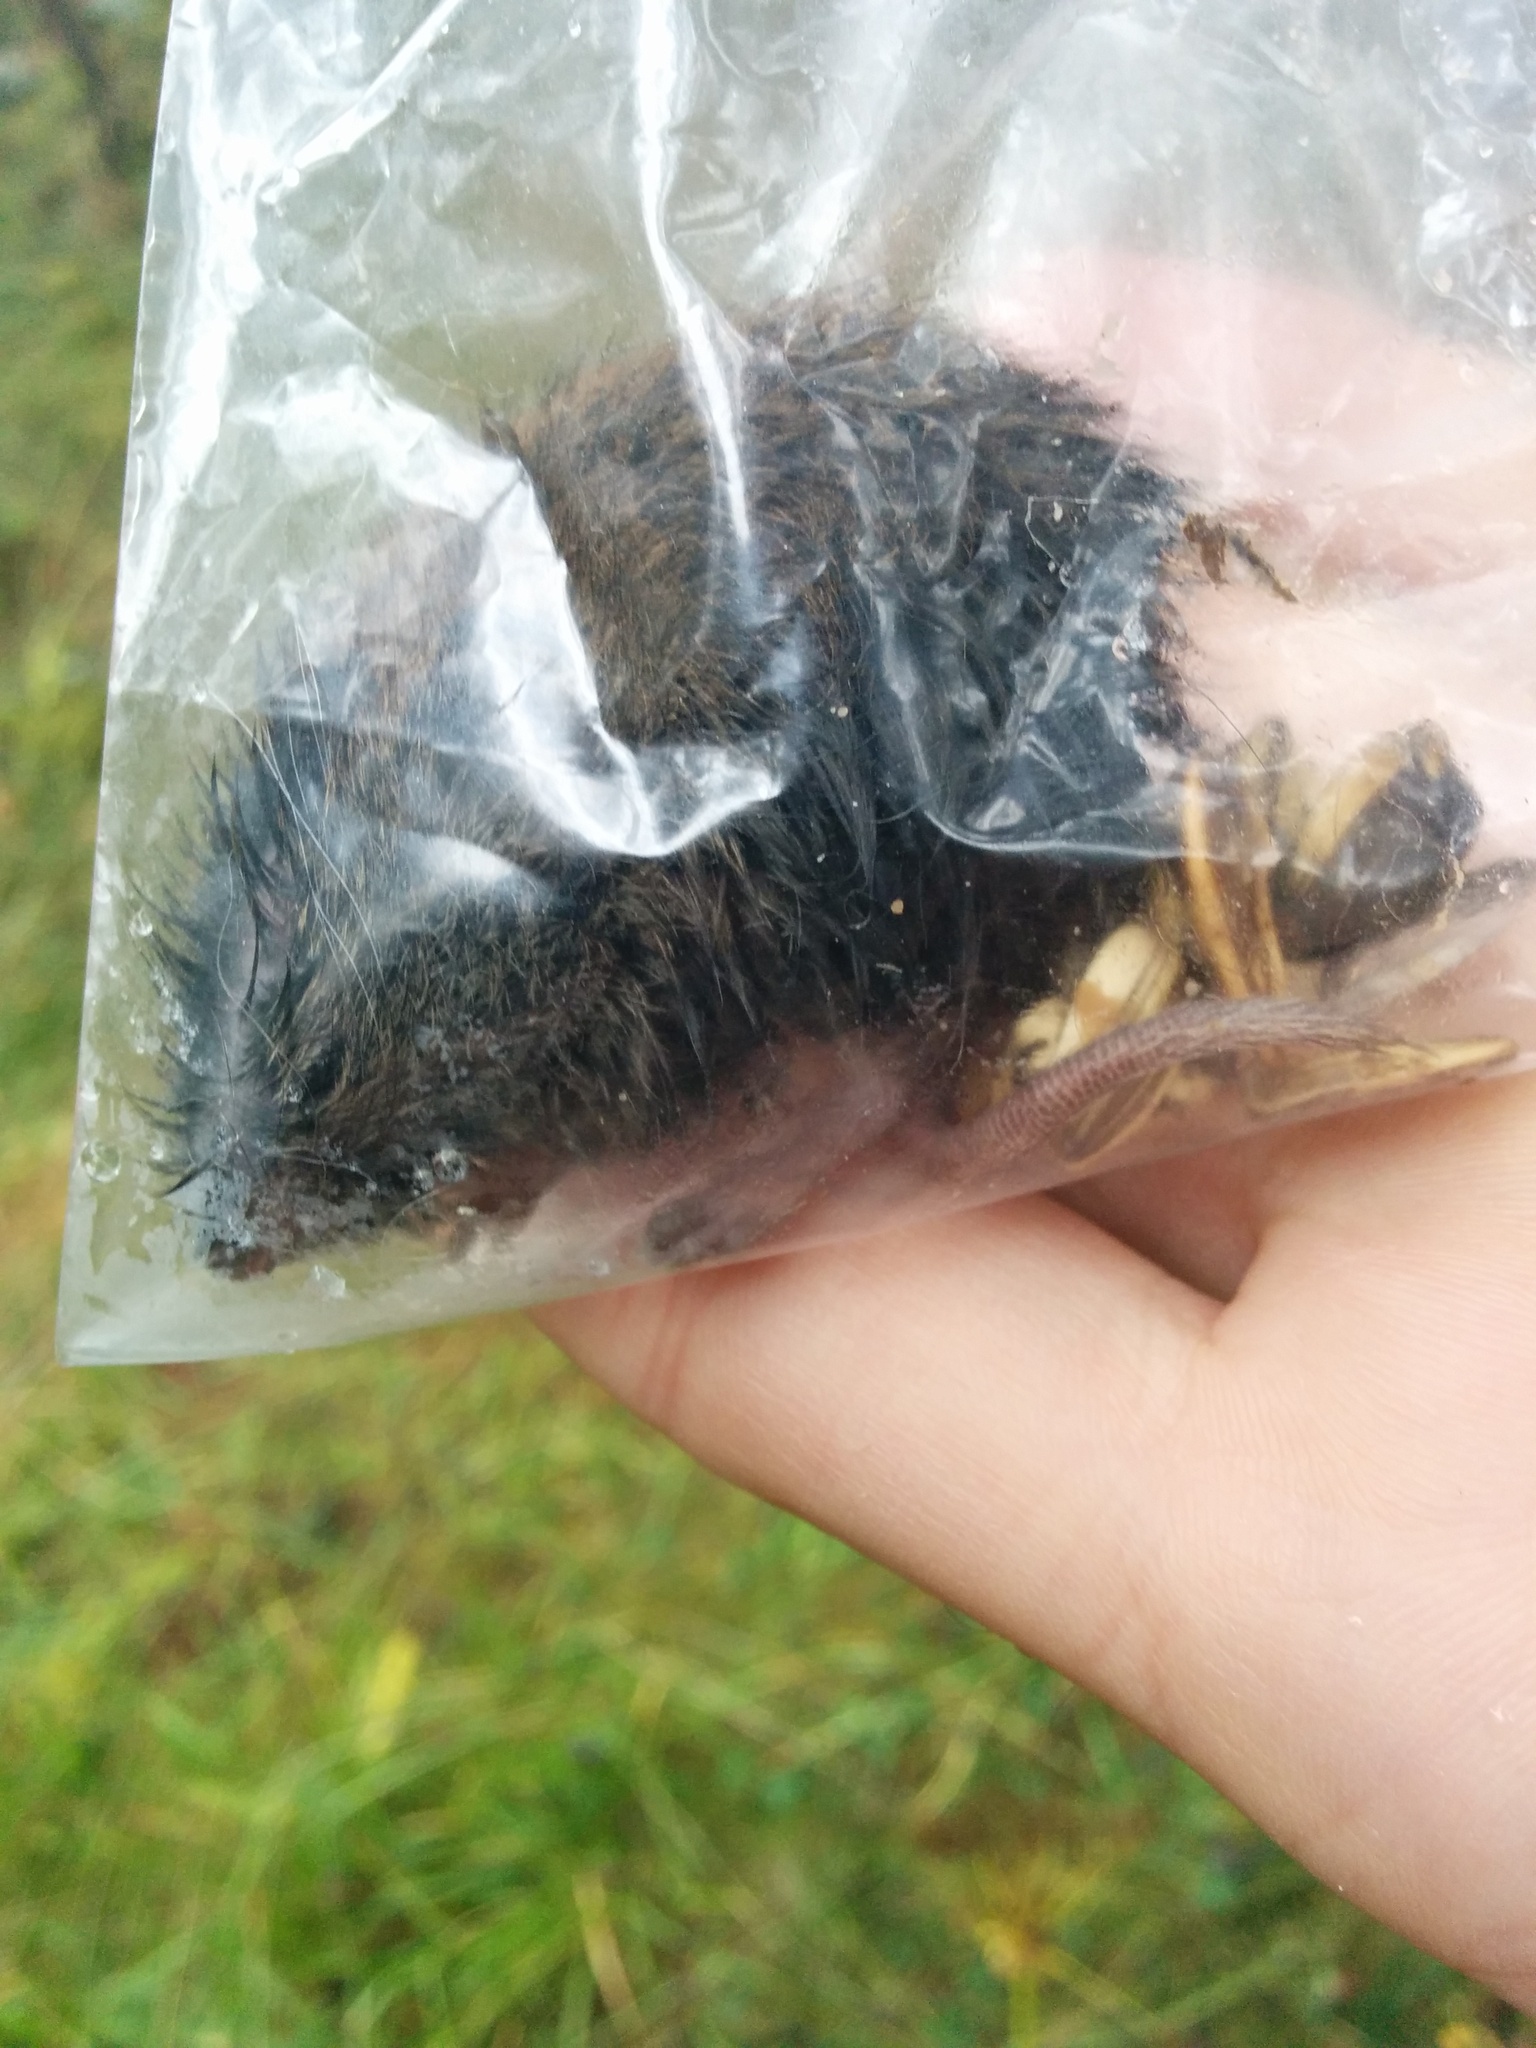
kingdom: Animalia
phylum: Chordata
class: Mammalia
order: Rodentia
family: Cricetidae
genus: Myodes
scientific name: Myodes glareolus
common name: Bank vole
